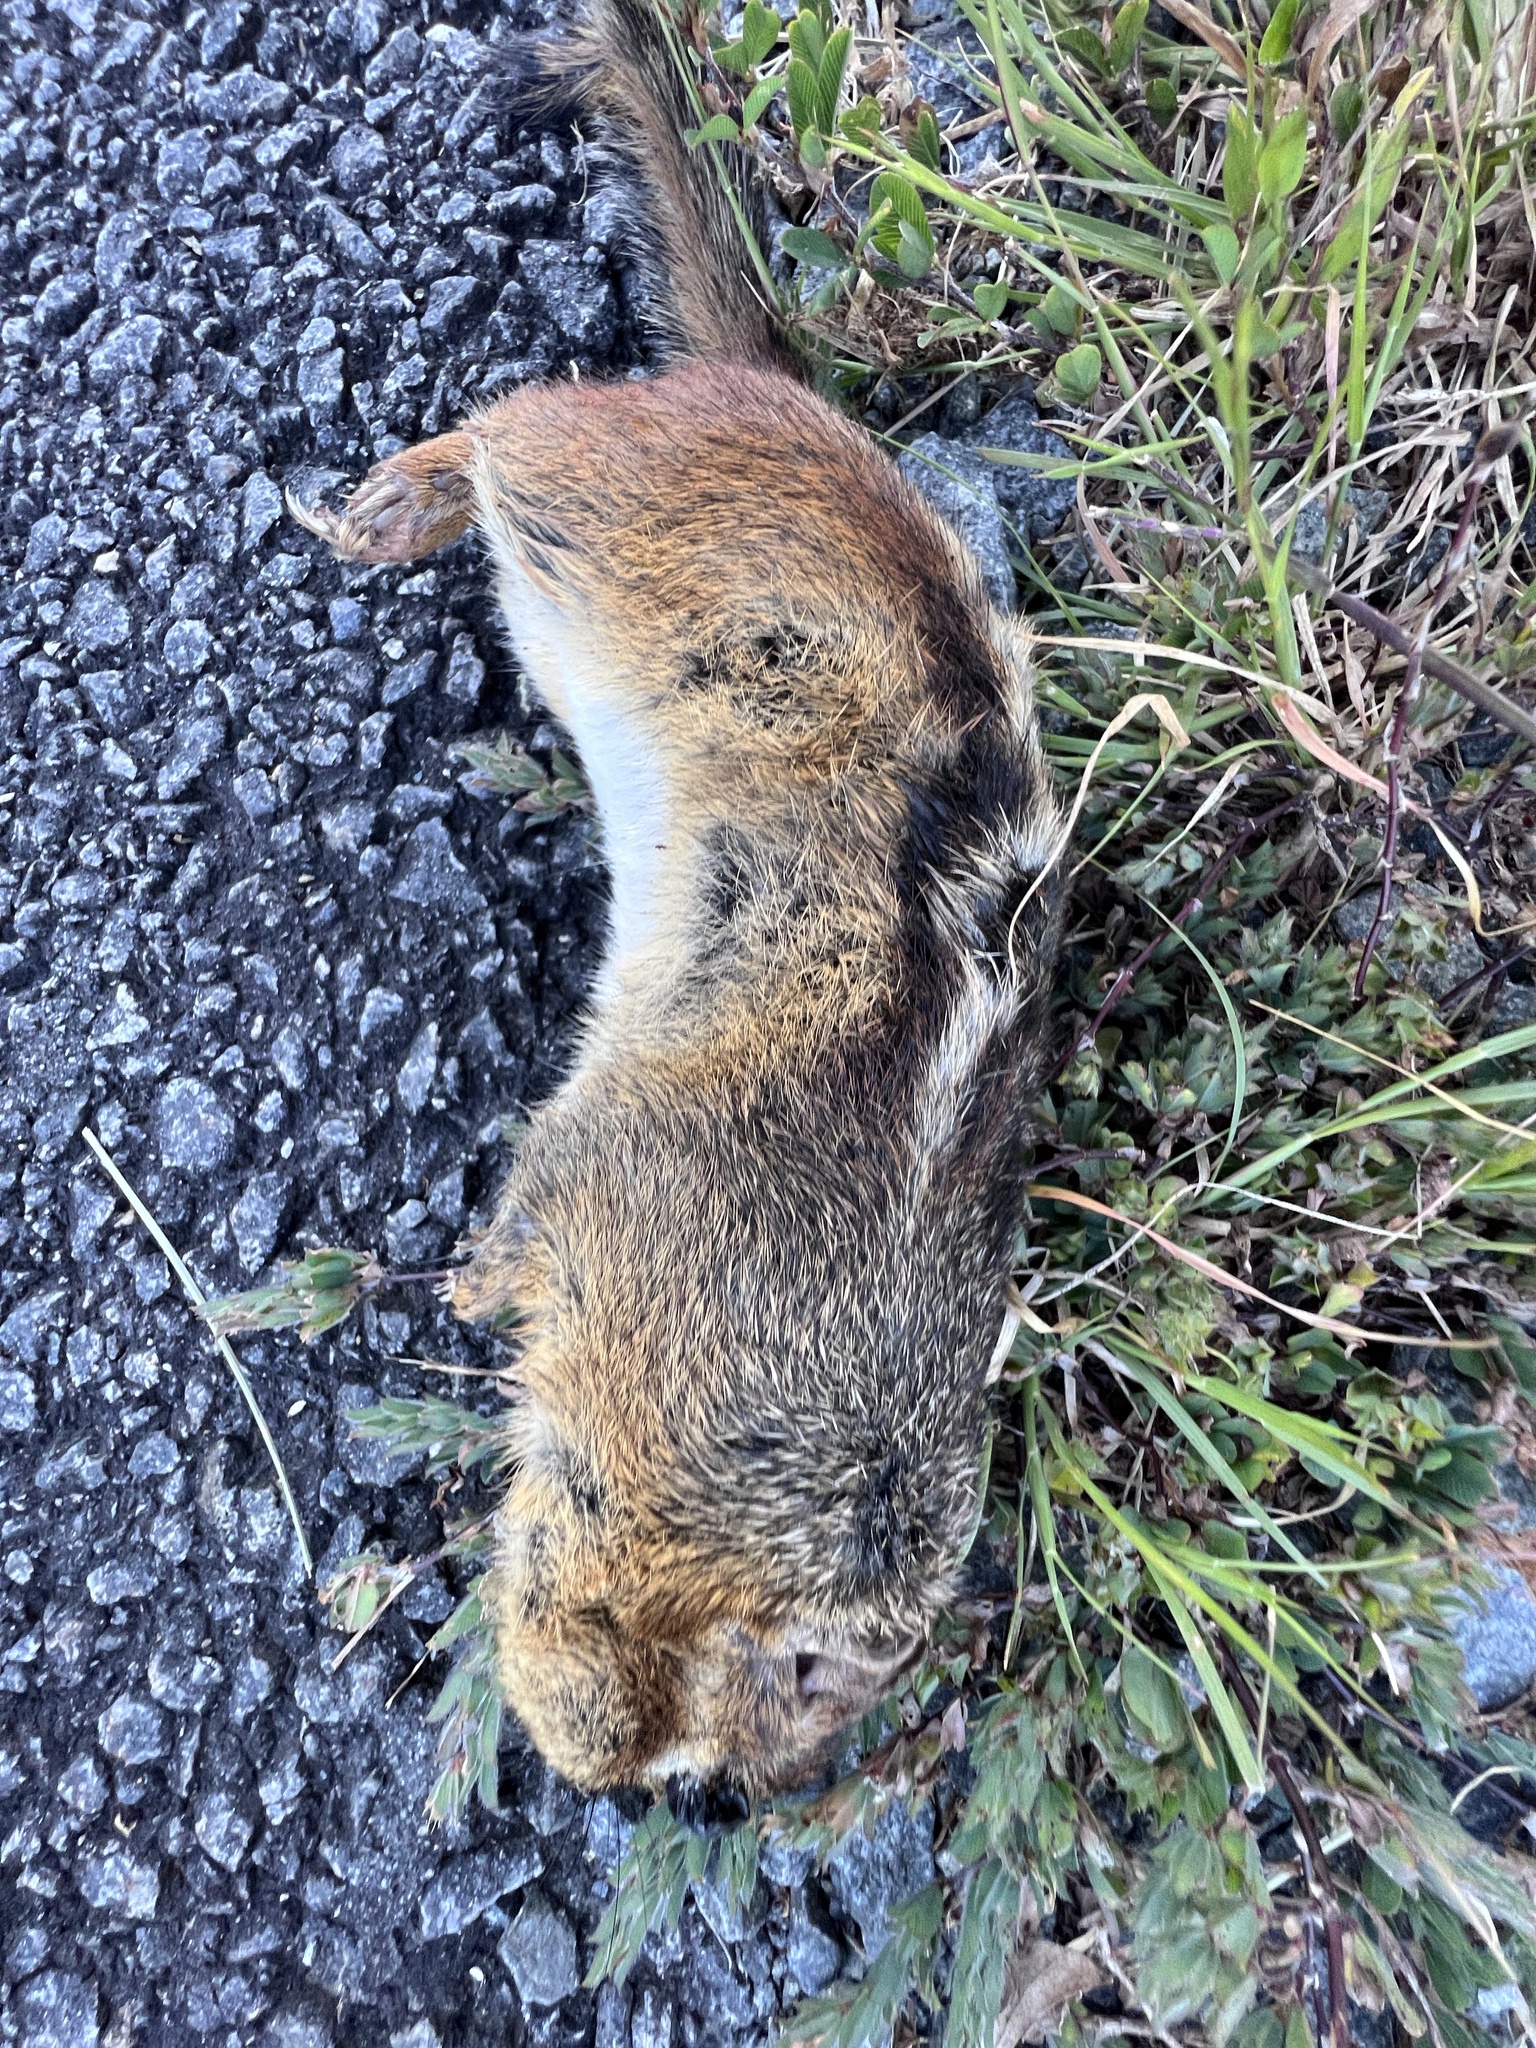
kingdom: Animalia
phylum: Chordata
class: Mammalia
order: Rodentia
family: Sciuridae
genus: Tamias
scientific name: Tamias striatus
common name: Eastern chipmunk
